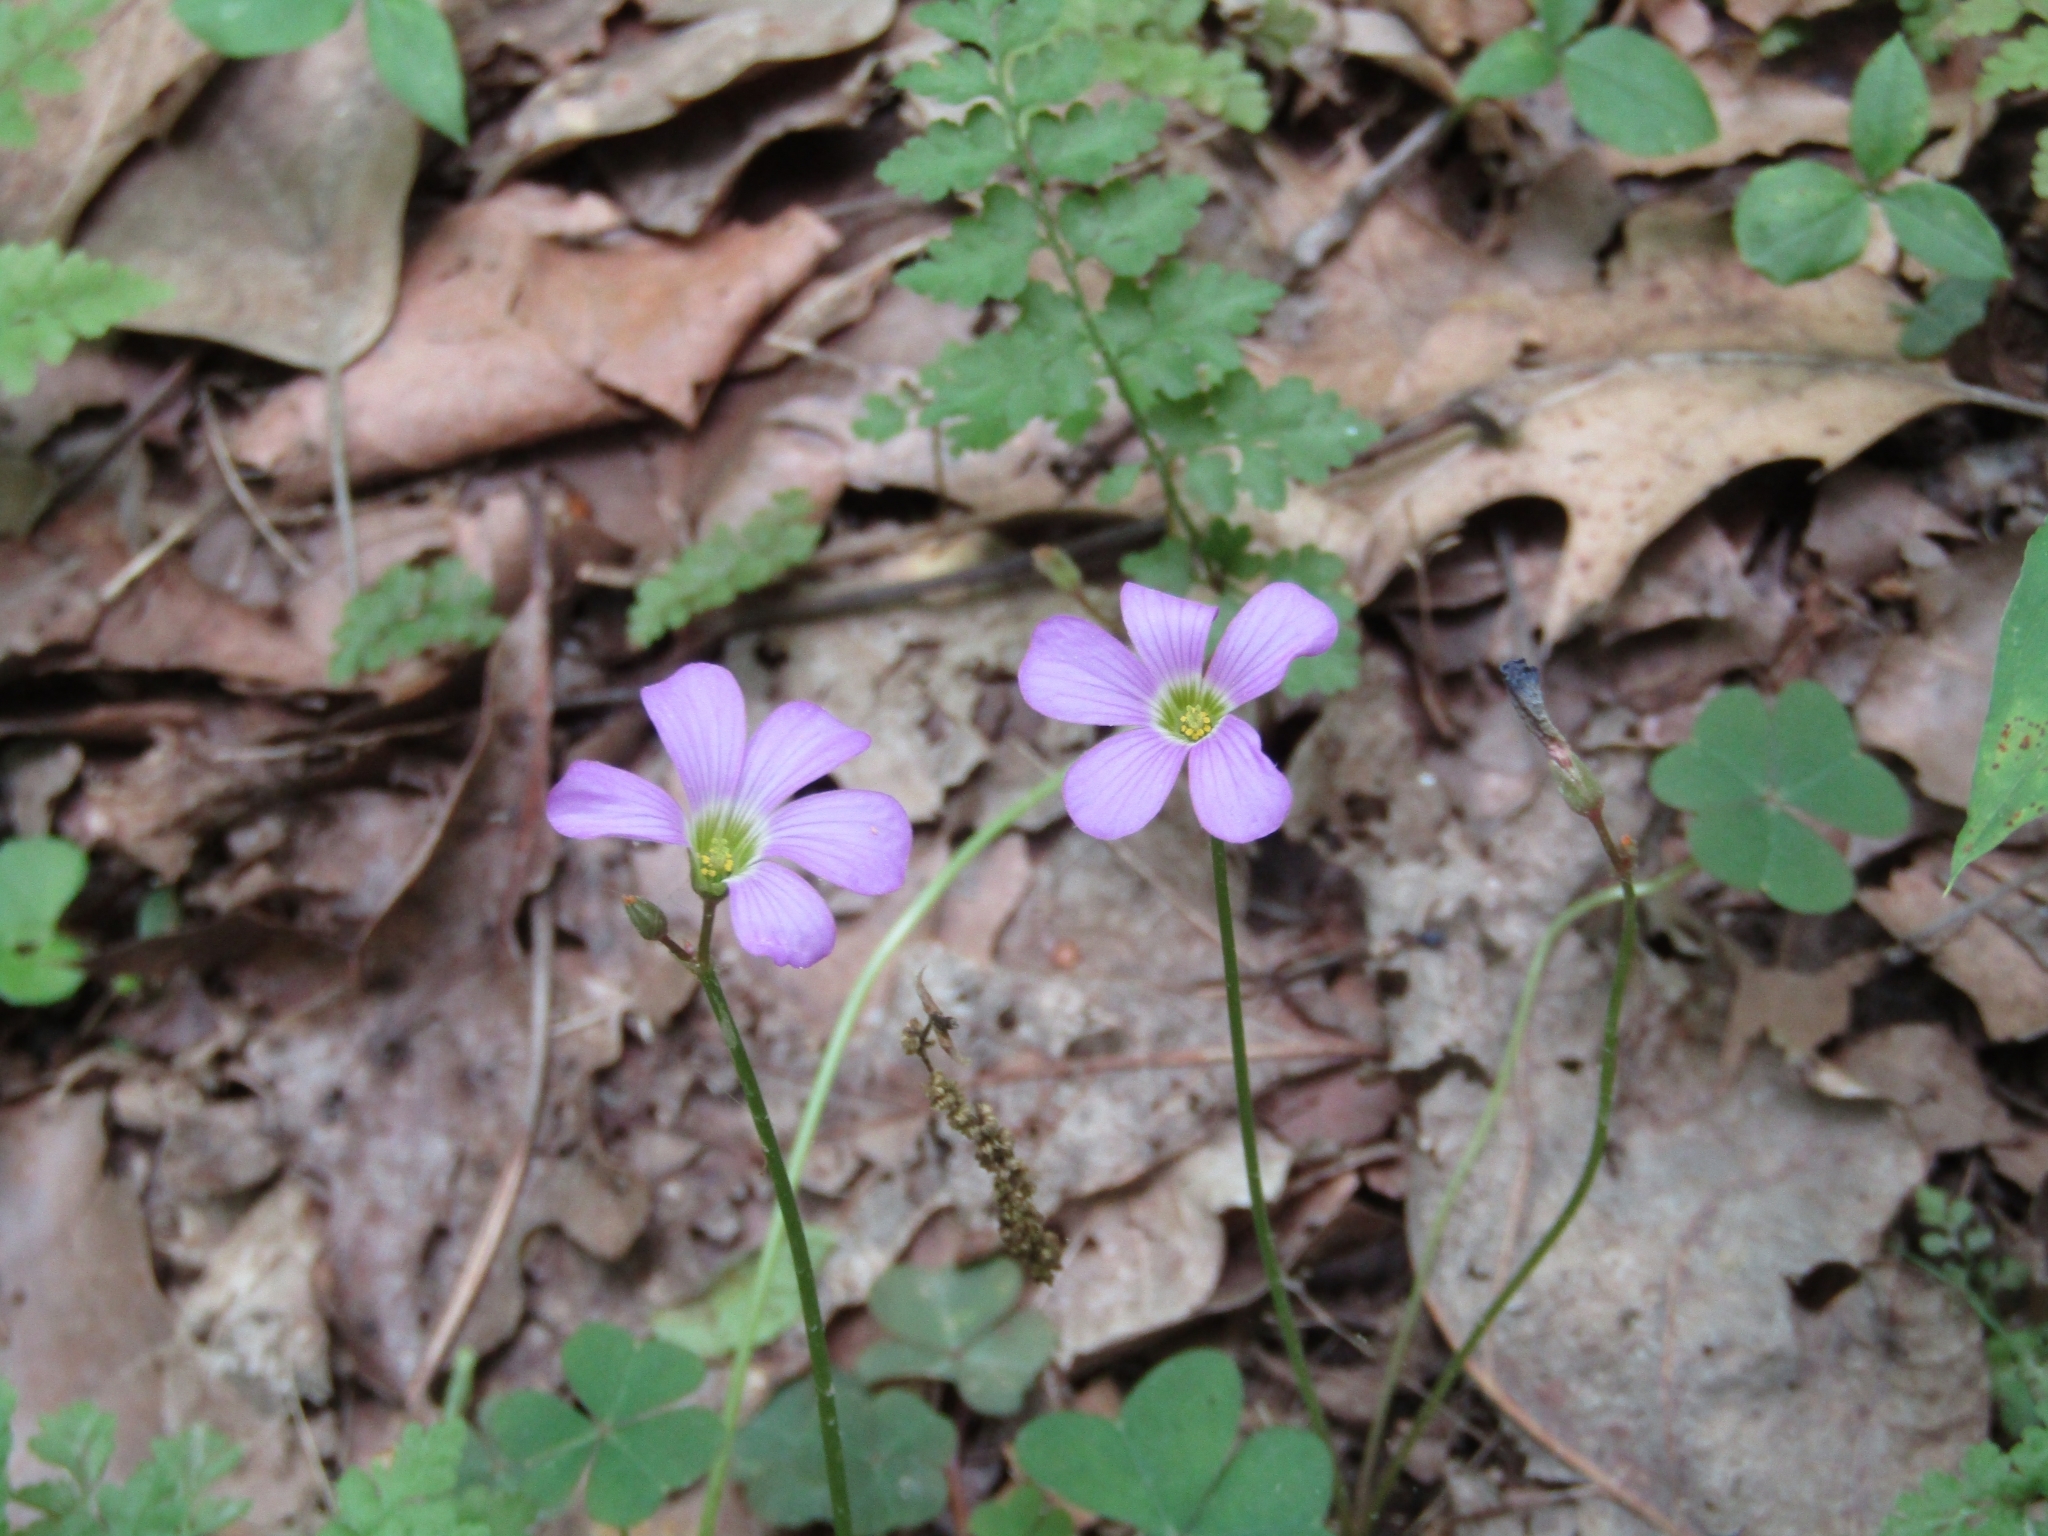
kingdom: Plantae
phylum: Tracheophyta
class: Magnoliopsida
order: Oxalidales
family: Oxalidaceae
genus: Oxalis
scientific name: Oxalis violacea
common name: Violet wood-sorrel
